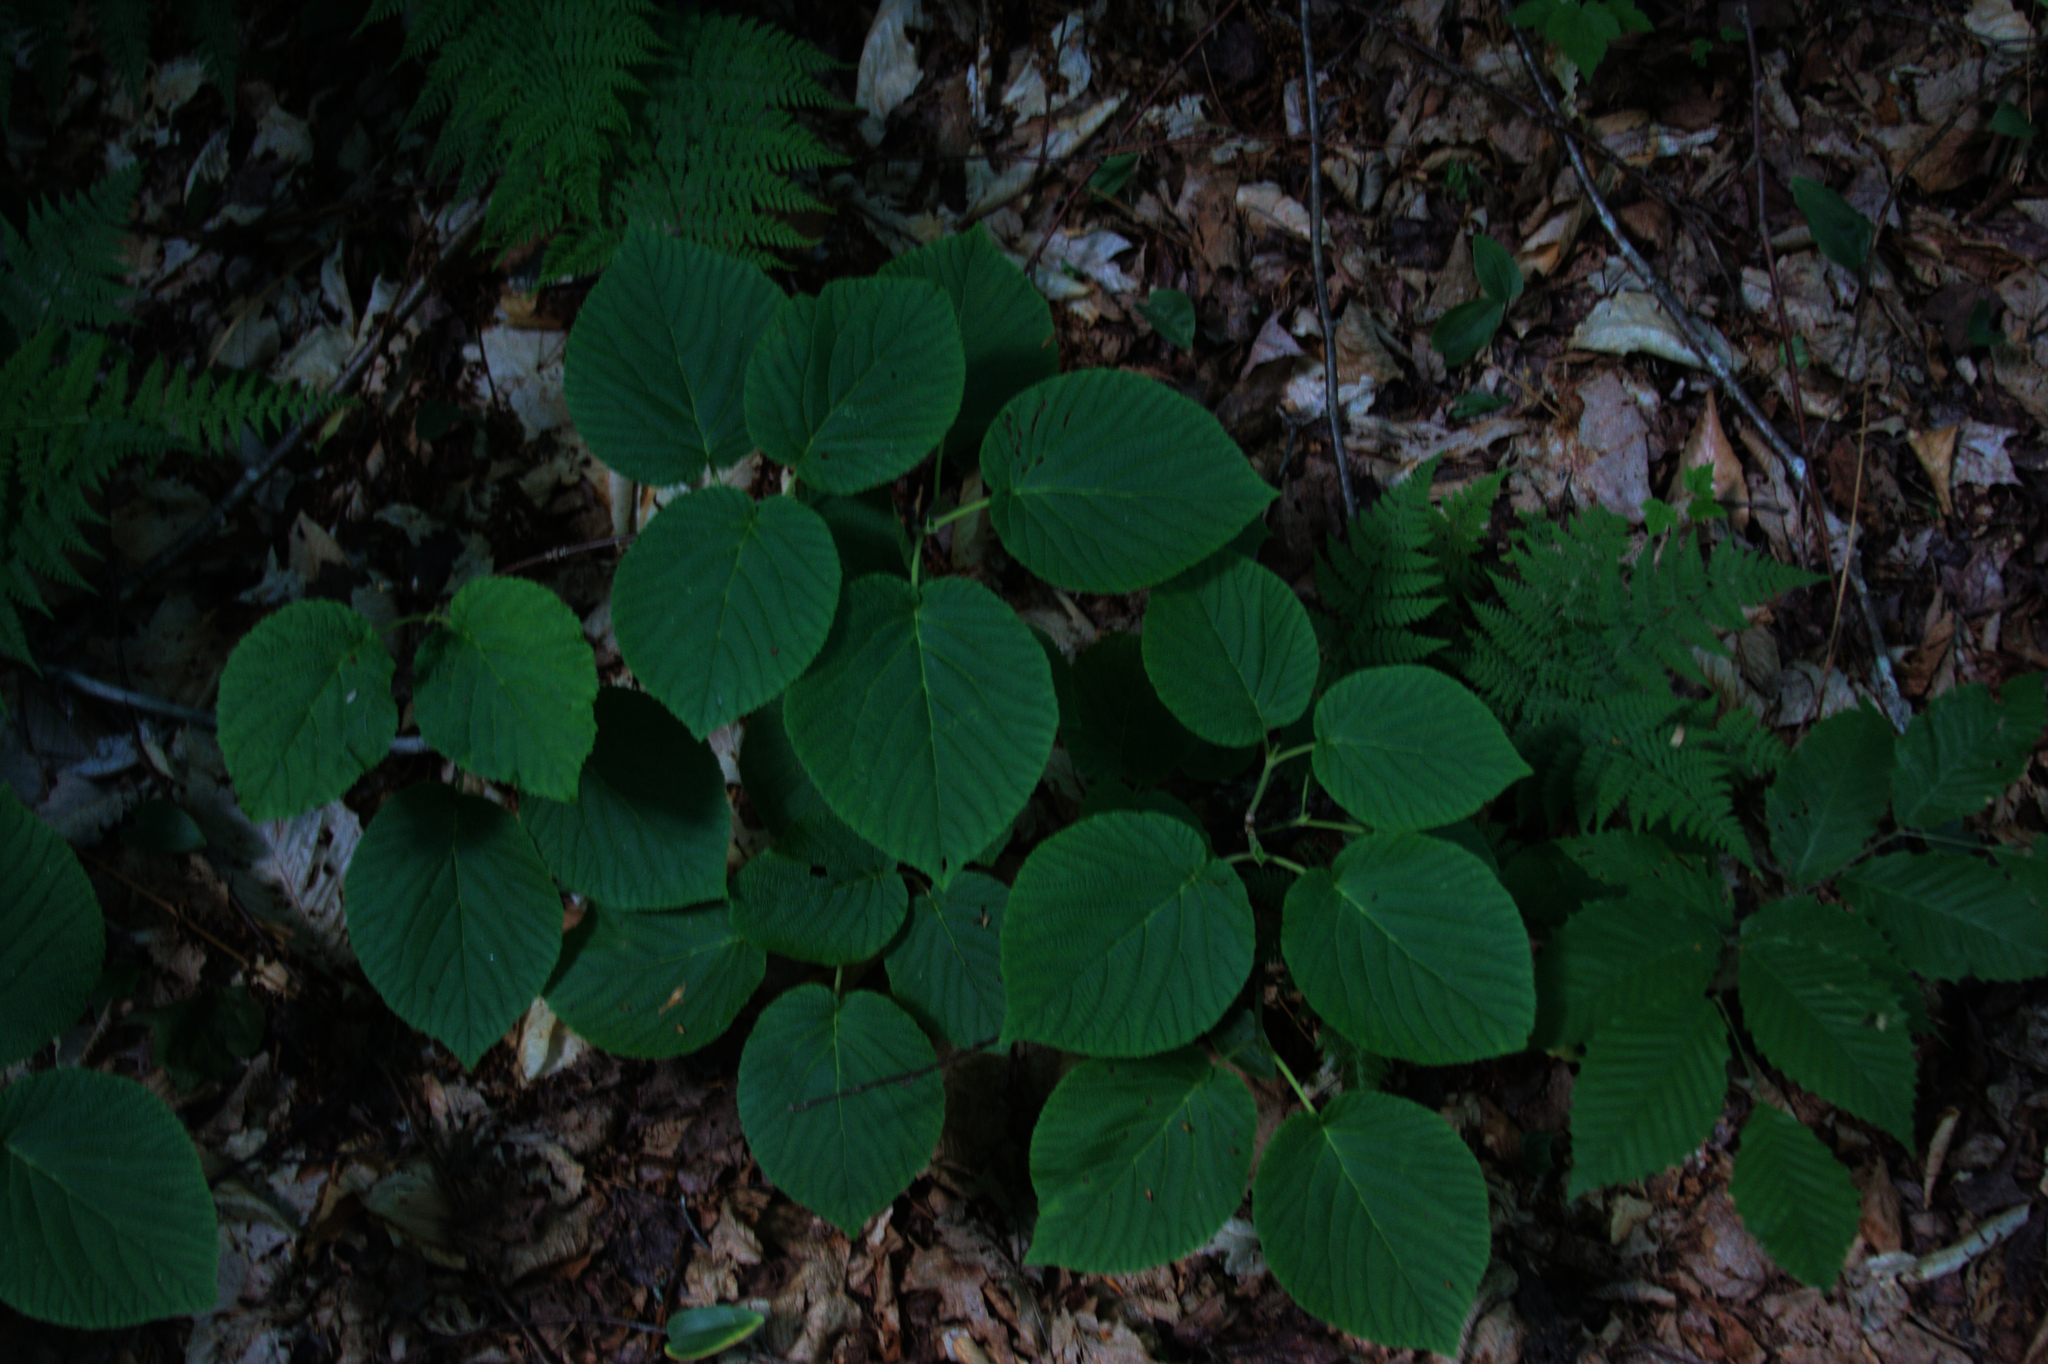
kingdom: Plantae
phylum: Tracheophyta
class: Magnoliopsida
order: Dipsacales
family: Viburnaceae
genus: Viburnum
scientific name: Viburnum lantanoides
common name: Hobblebush
